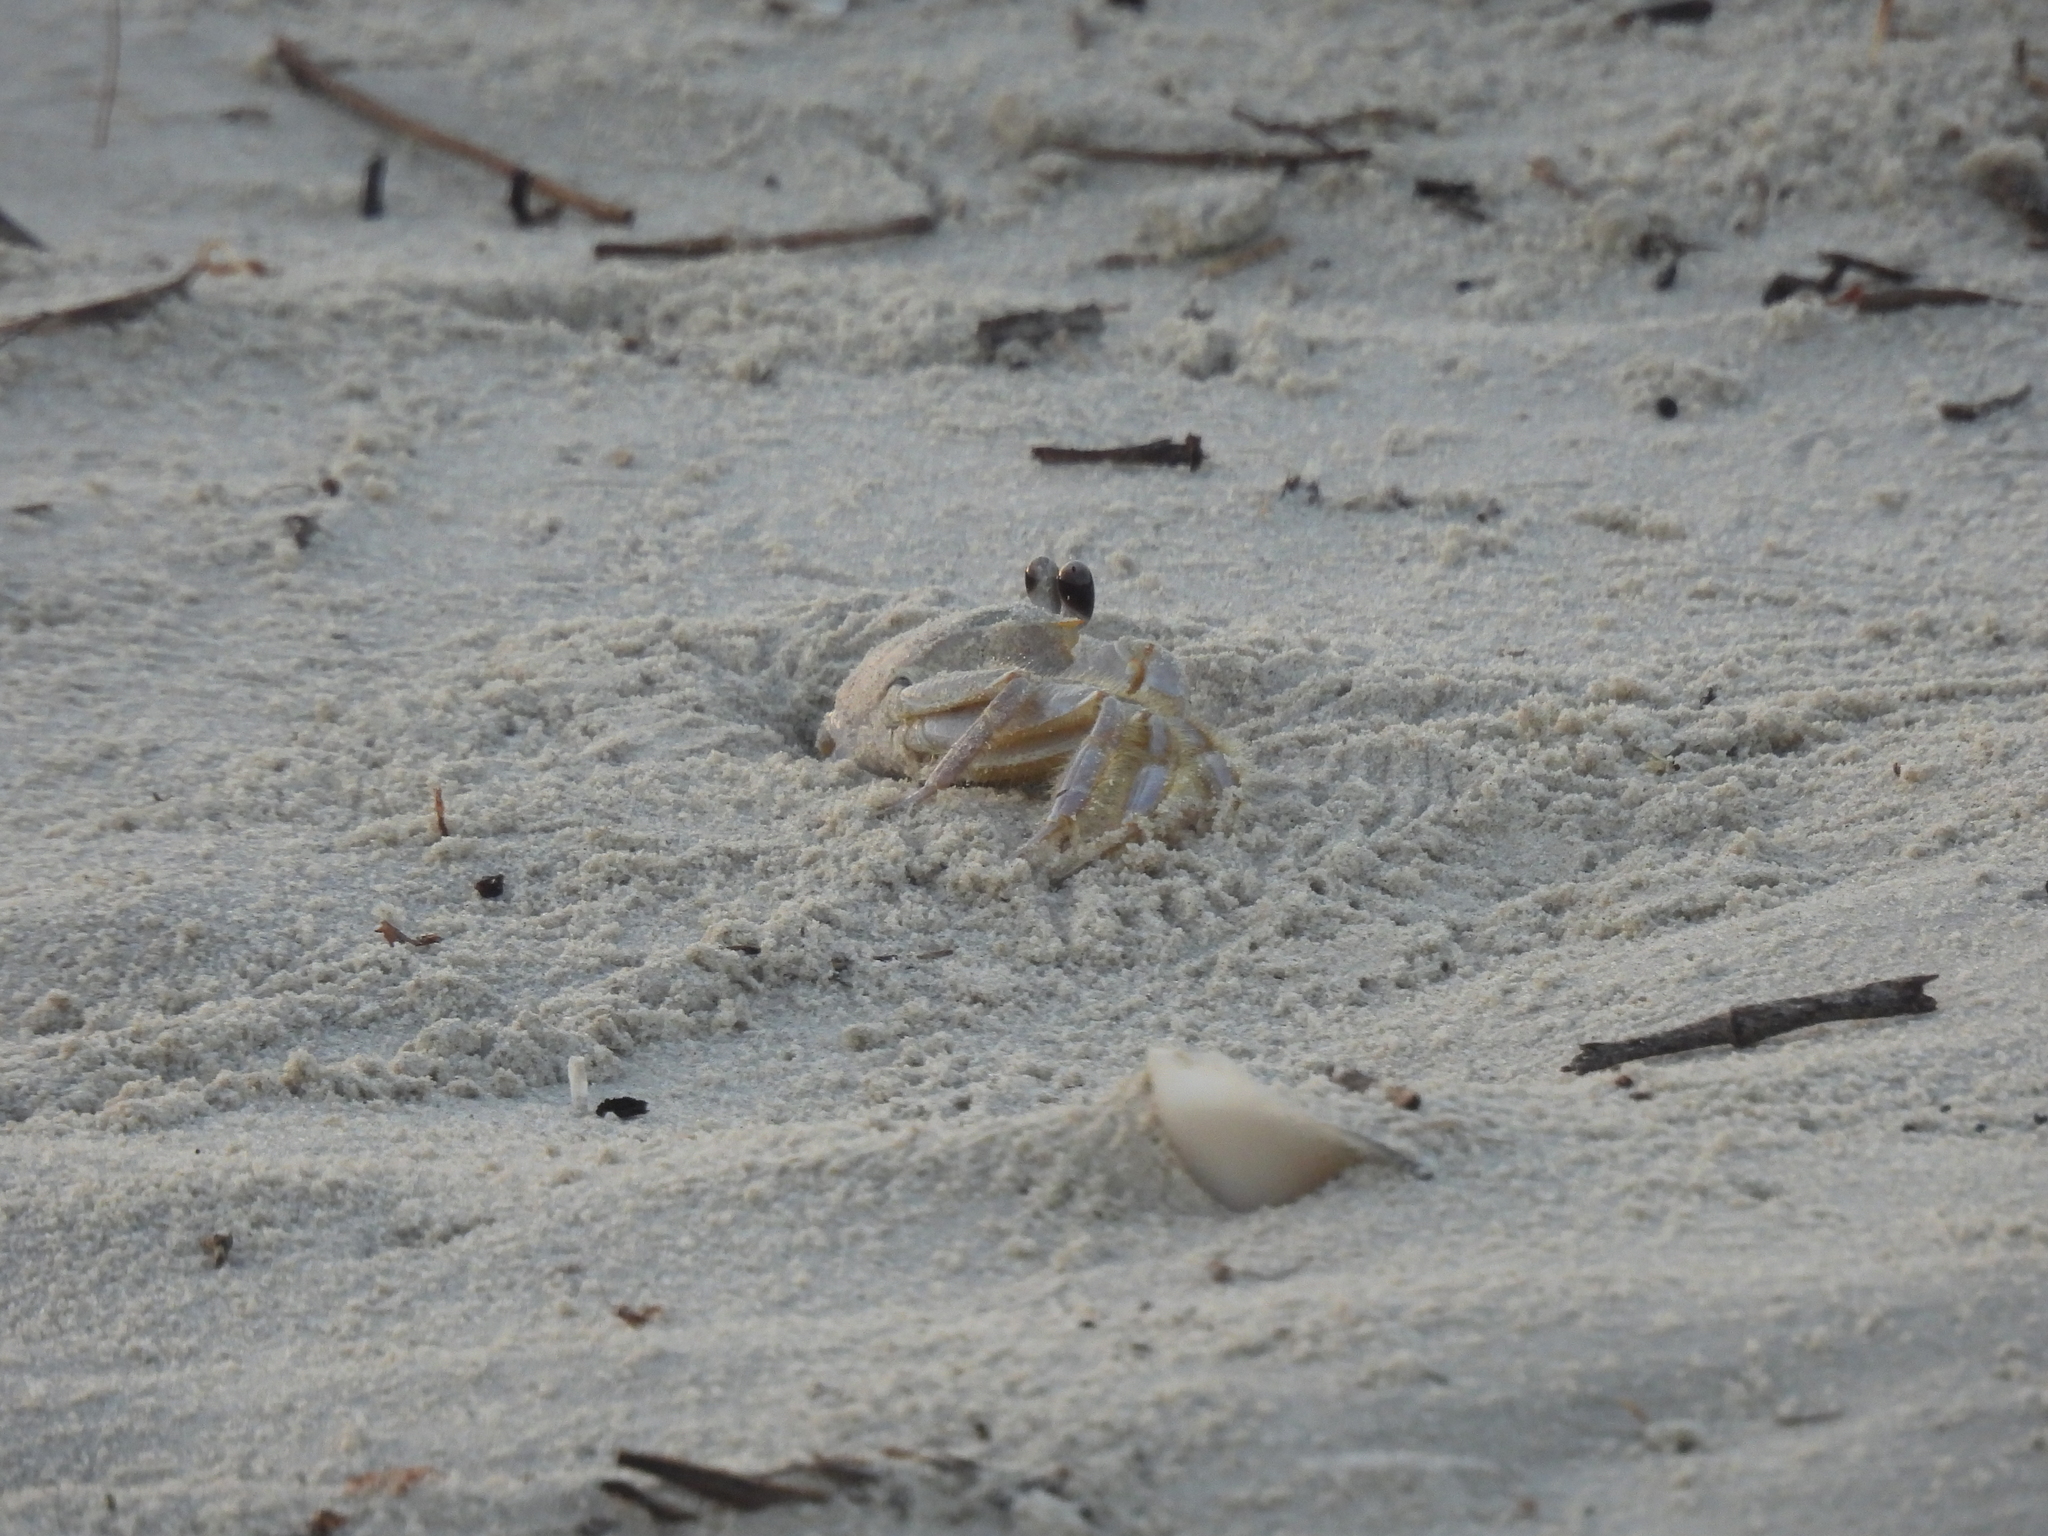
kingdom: Animalia
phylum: Arthropoda
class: Malacostraca
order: Decapoda
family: Ocypodidae
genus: Ocypode
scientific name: Ocypode quadrata
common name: Ghost crab
